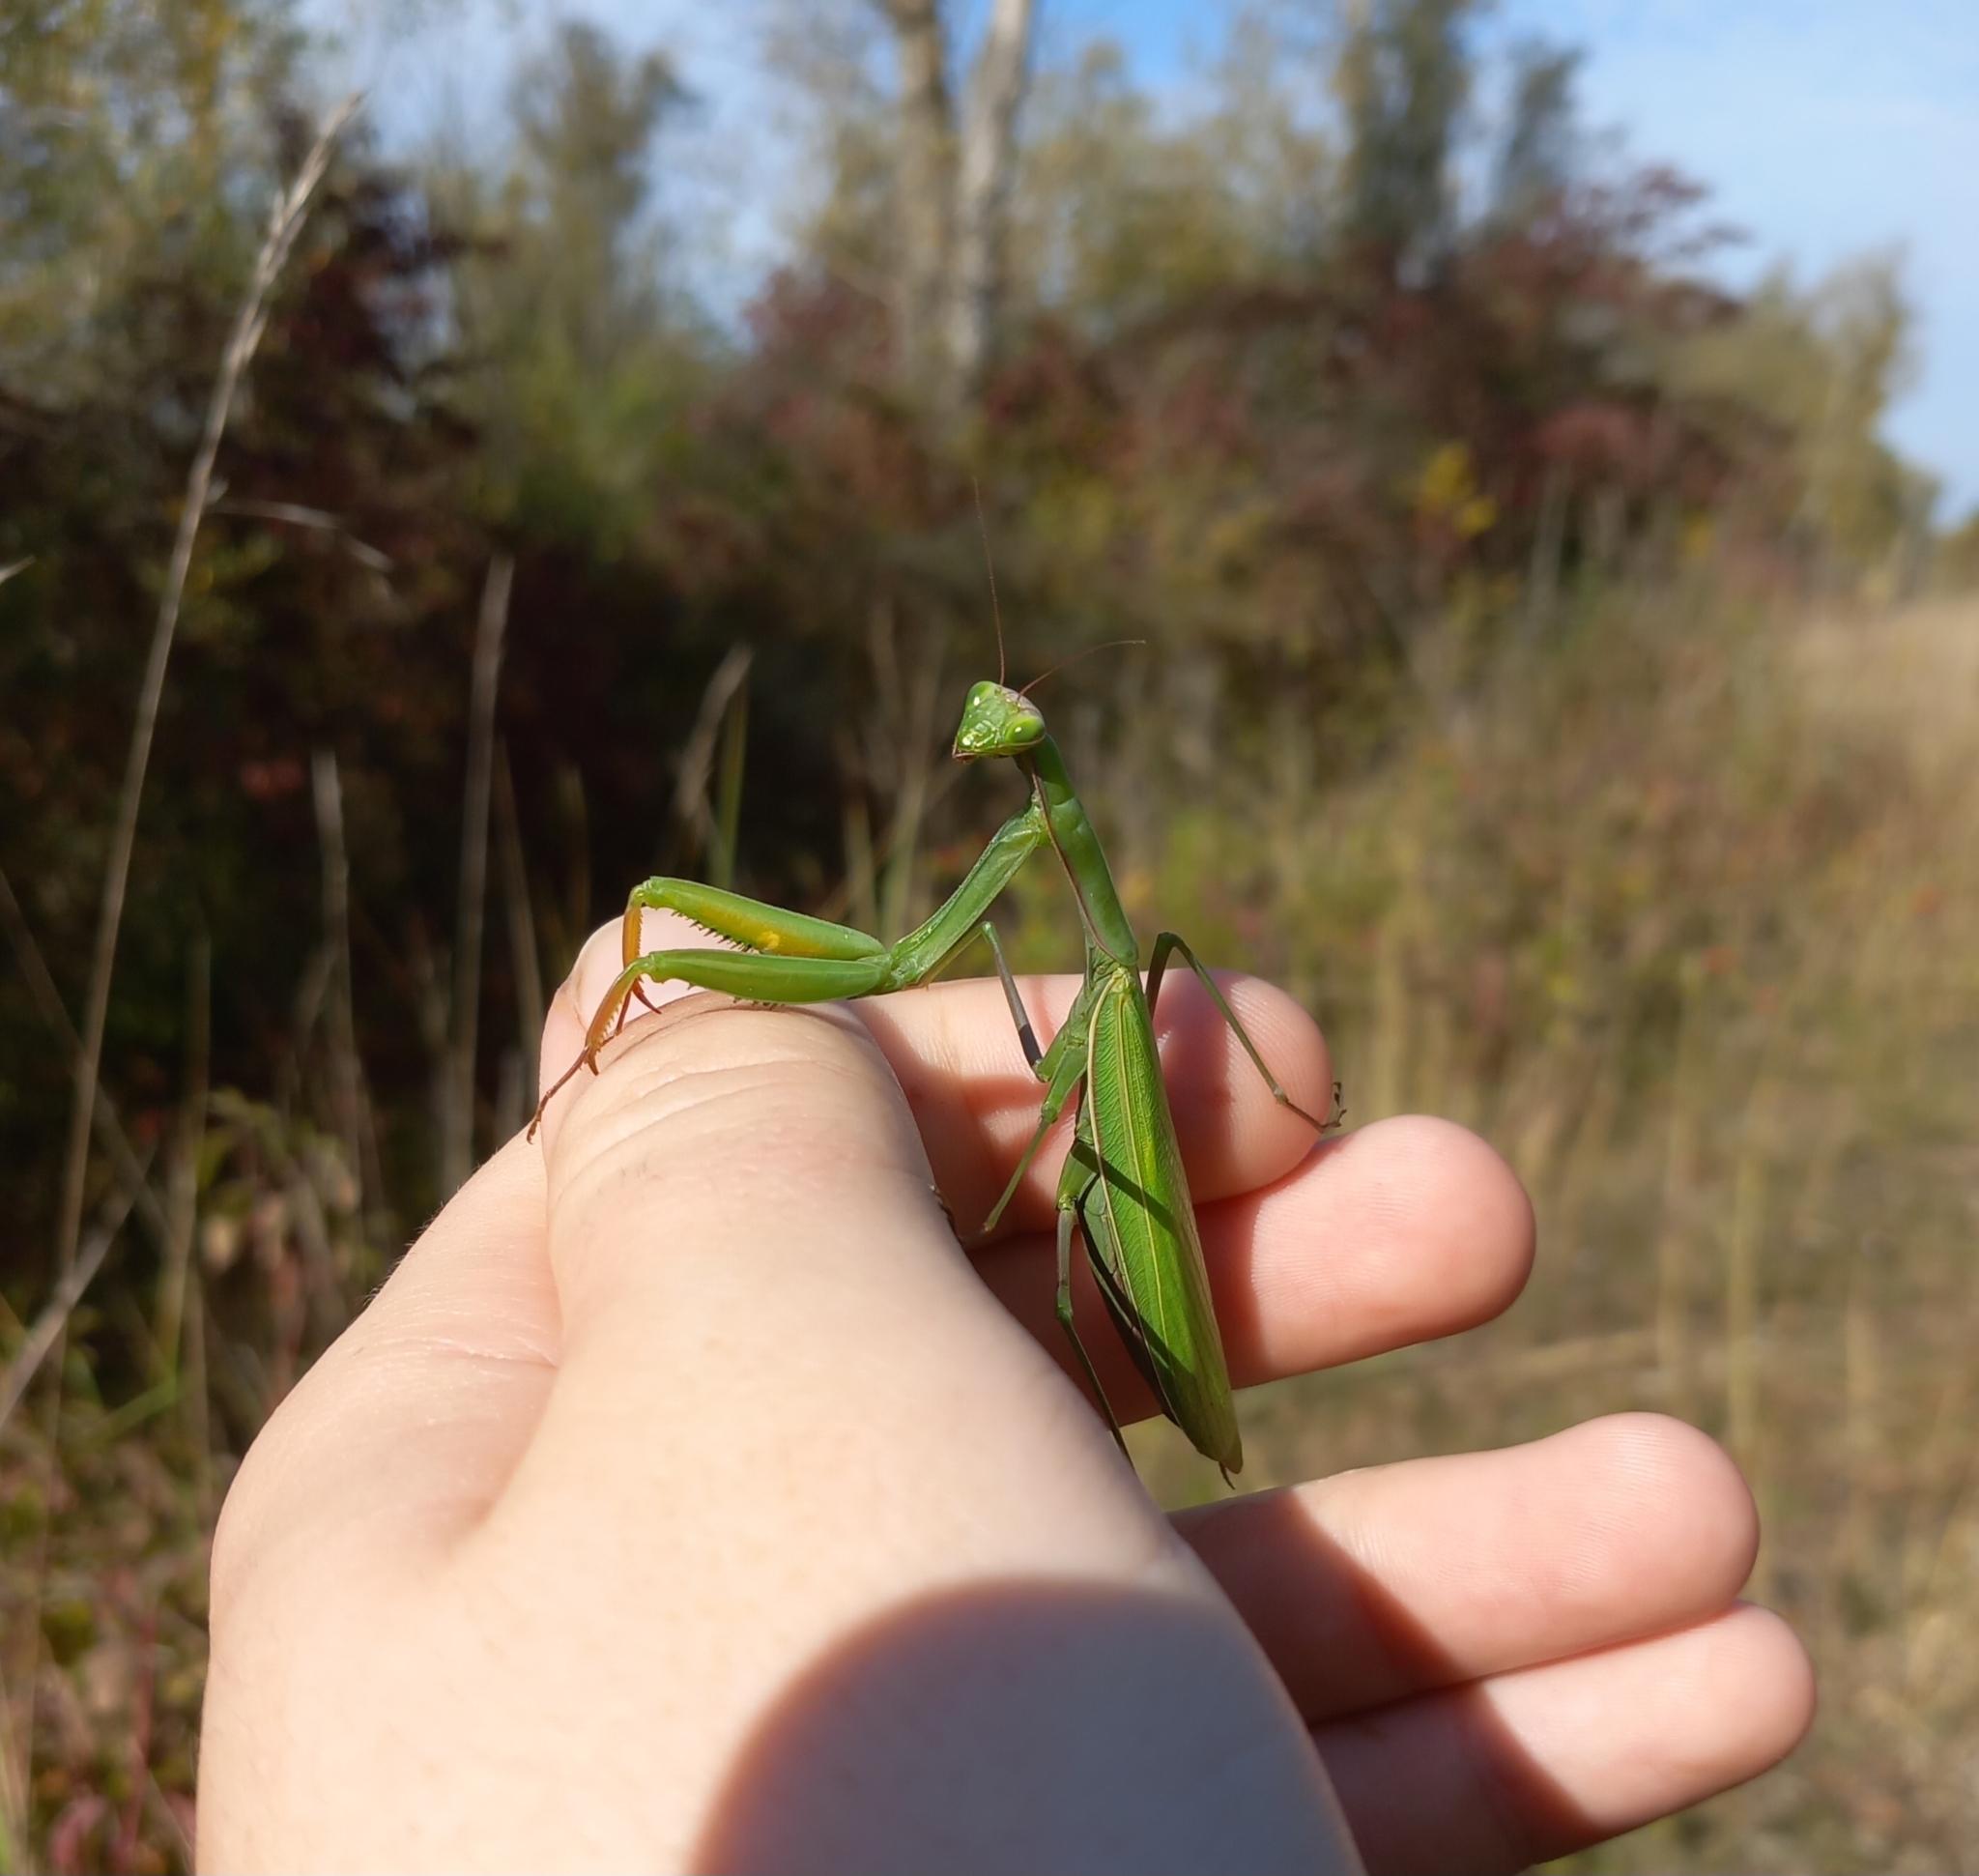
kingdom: Animalia
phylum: Arthropoda
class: Insecta
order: Mantodea
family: Mantidae
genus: Mantis
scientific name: Mantis religiosa
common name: Praying mantis
